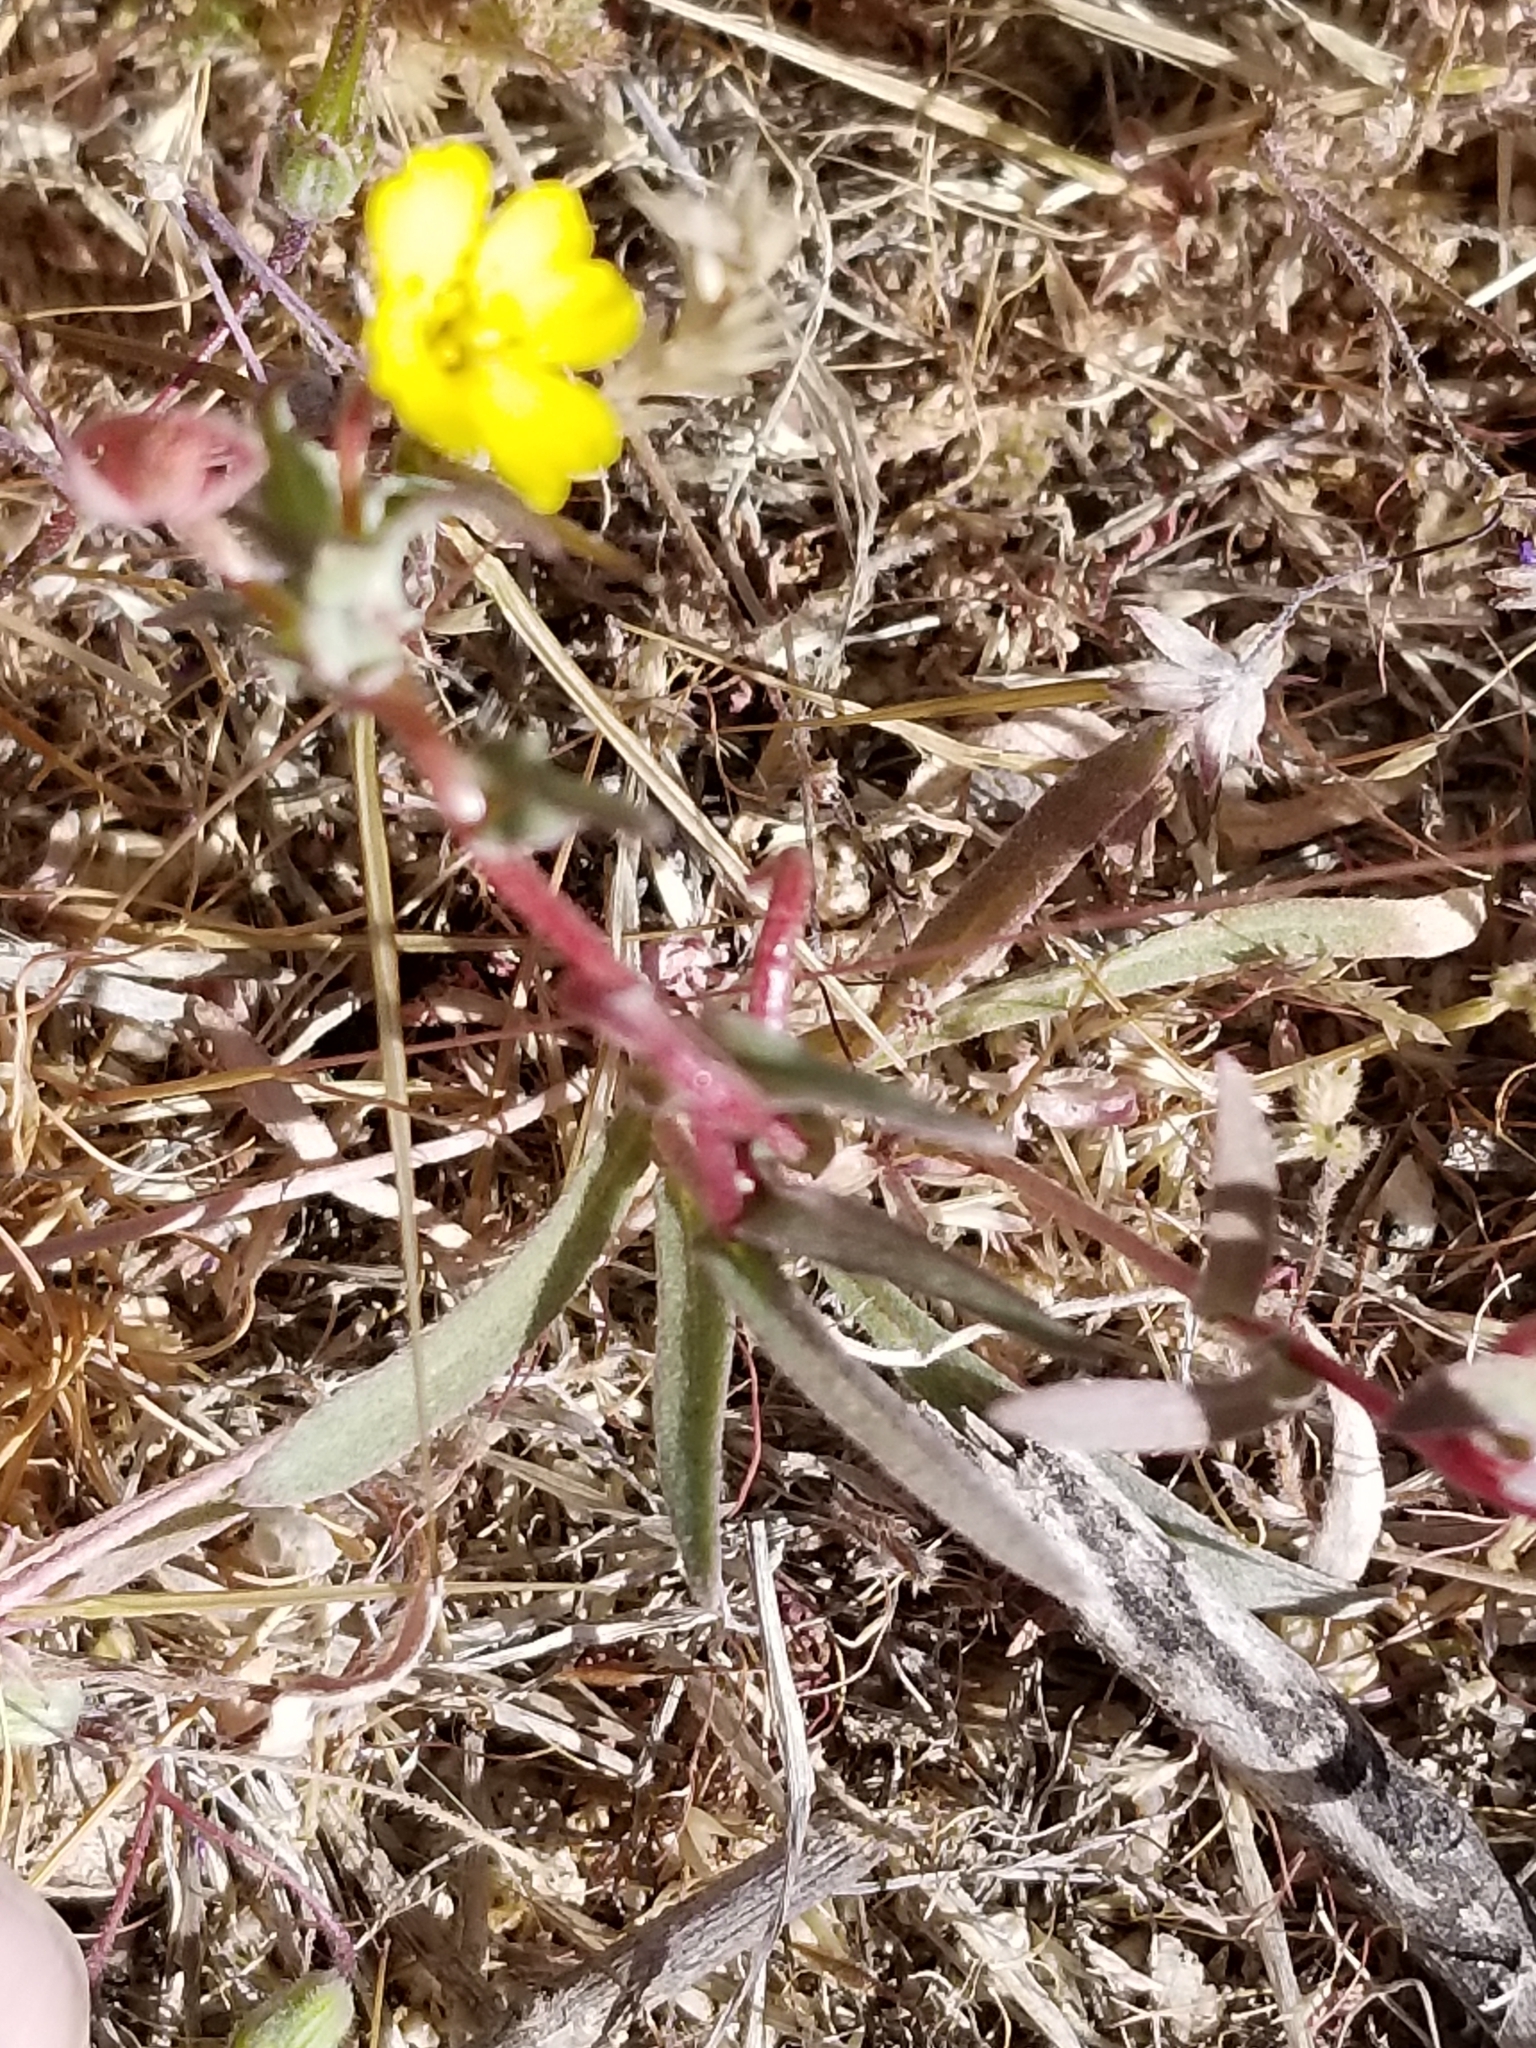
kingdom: Plantae
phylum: Tracheophyta
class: Magnoliopsida
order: Myrtales
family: Onagraceae
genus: Camissoniopsis
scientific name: Camissoniopsis pallida
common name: Paleyellow suncup
